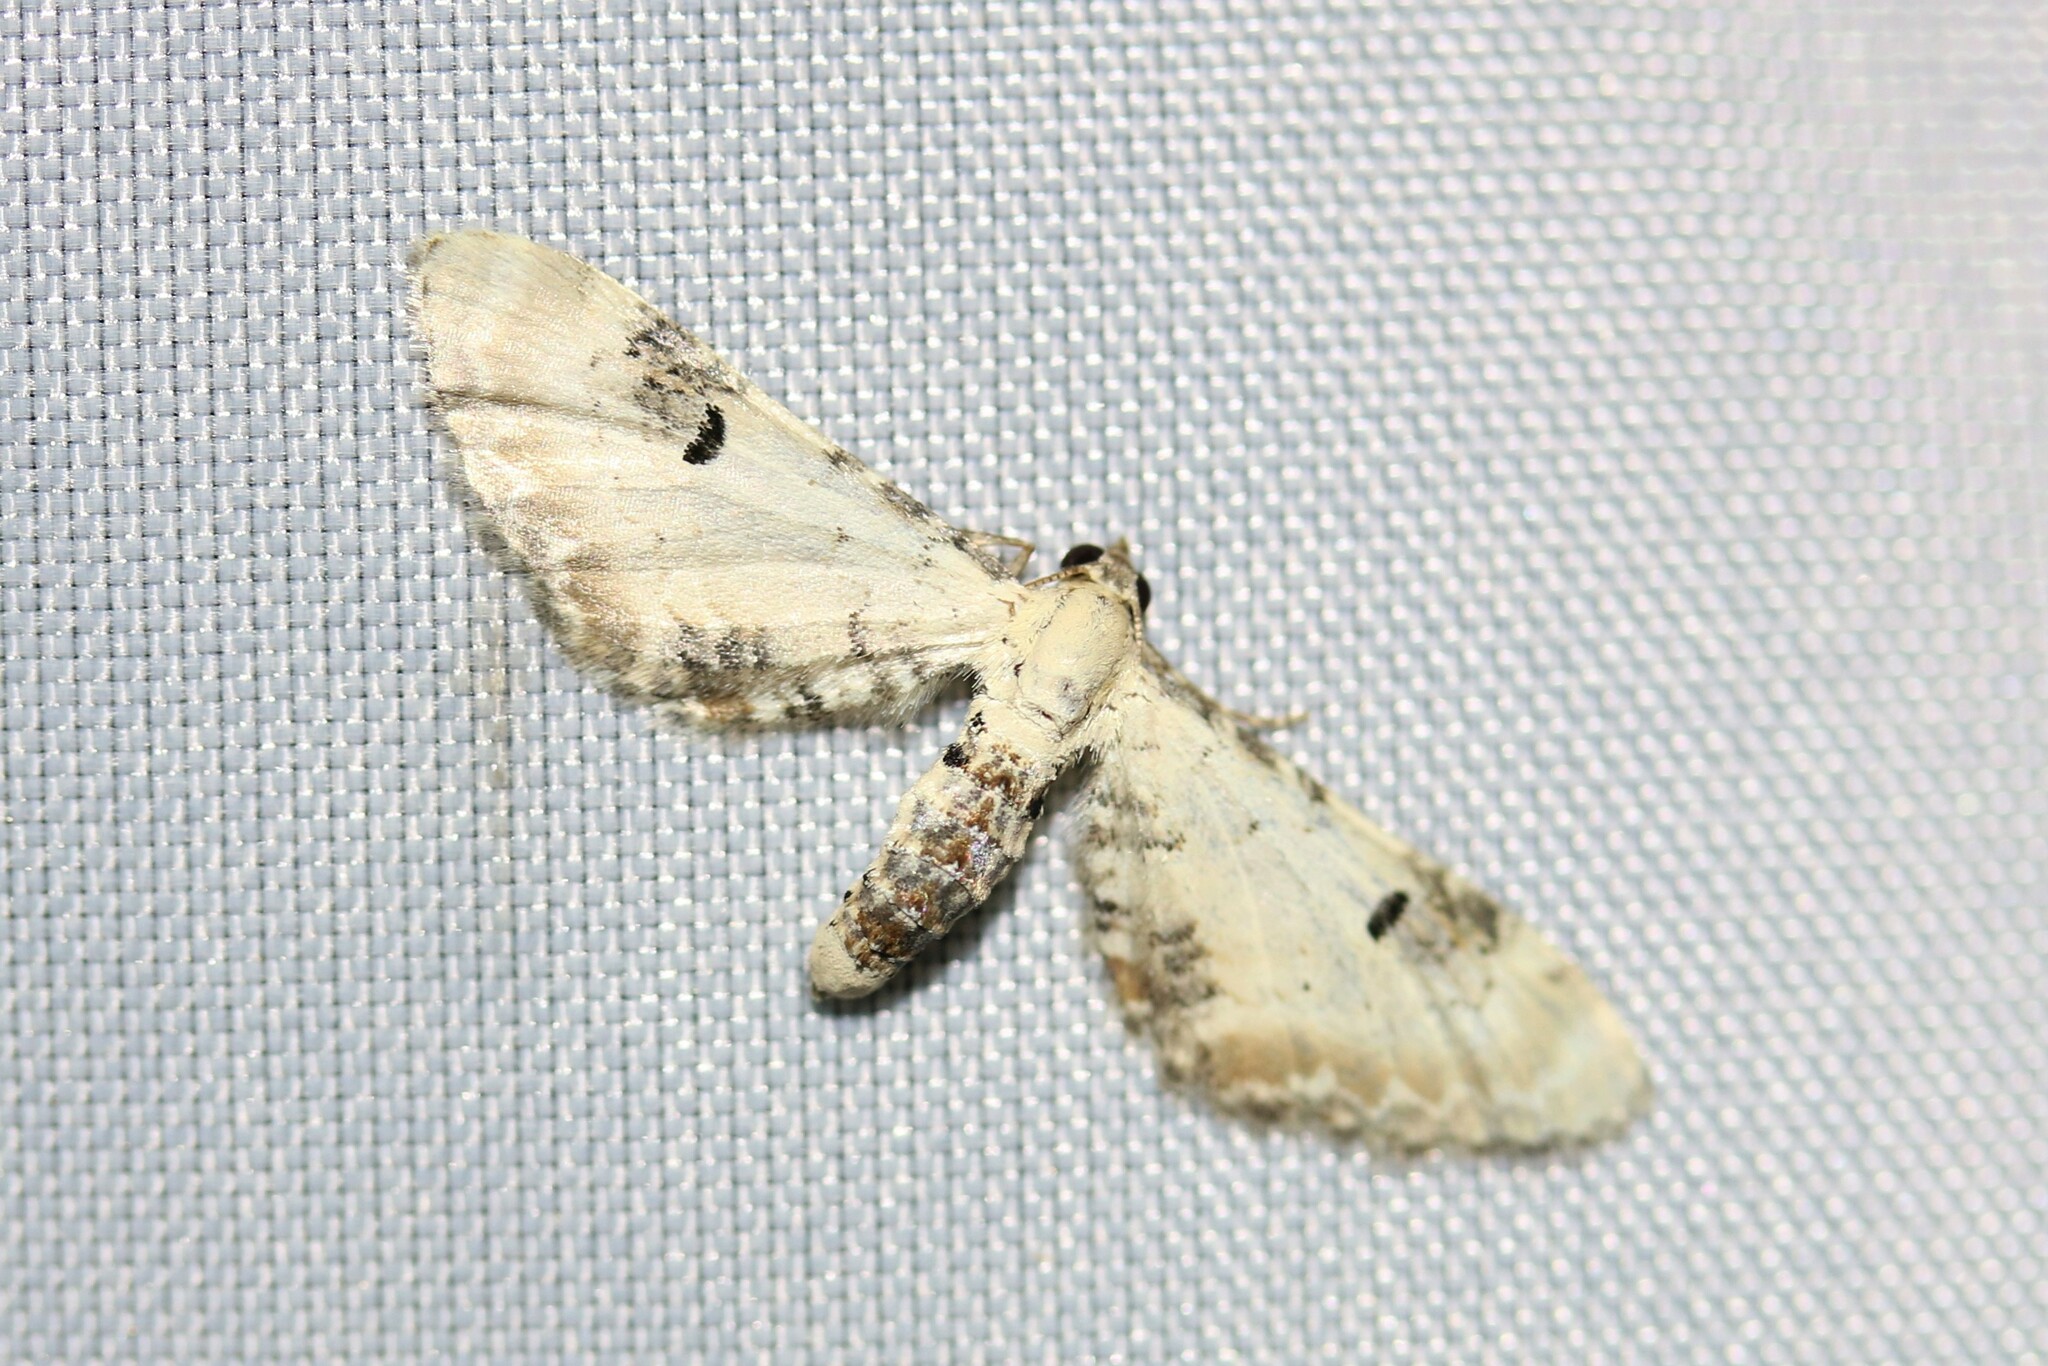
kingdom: Animalia
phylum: Arthropoda
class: Insecta
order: Lepidoptera
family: Geometridae
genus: Eupithecia
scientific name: Eupithecia centaureata
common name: Lime-speck pug
